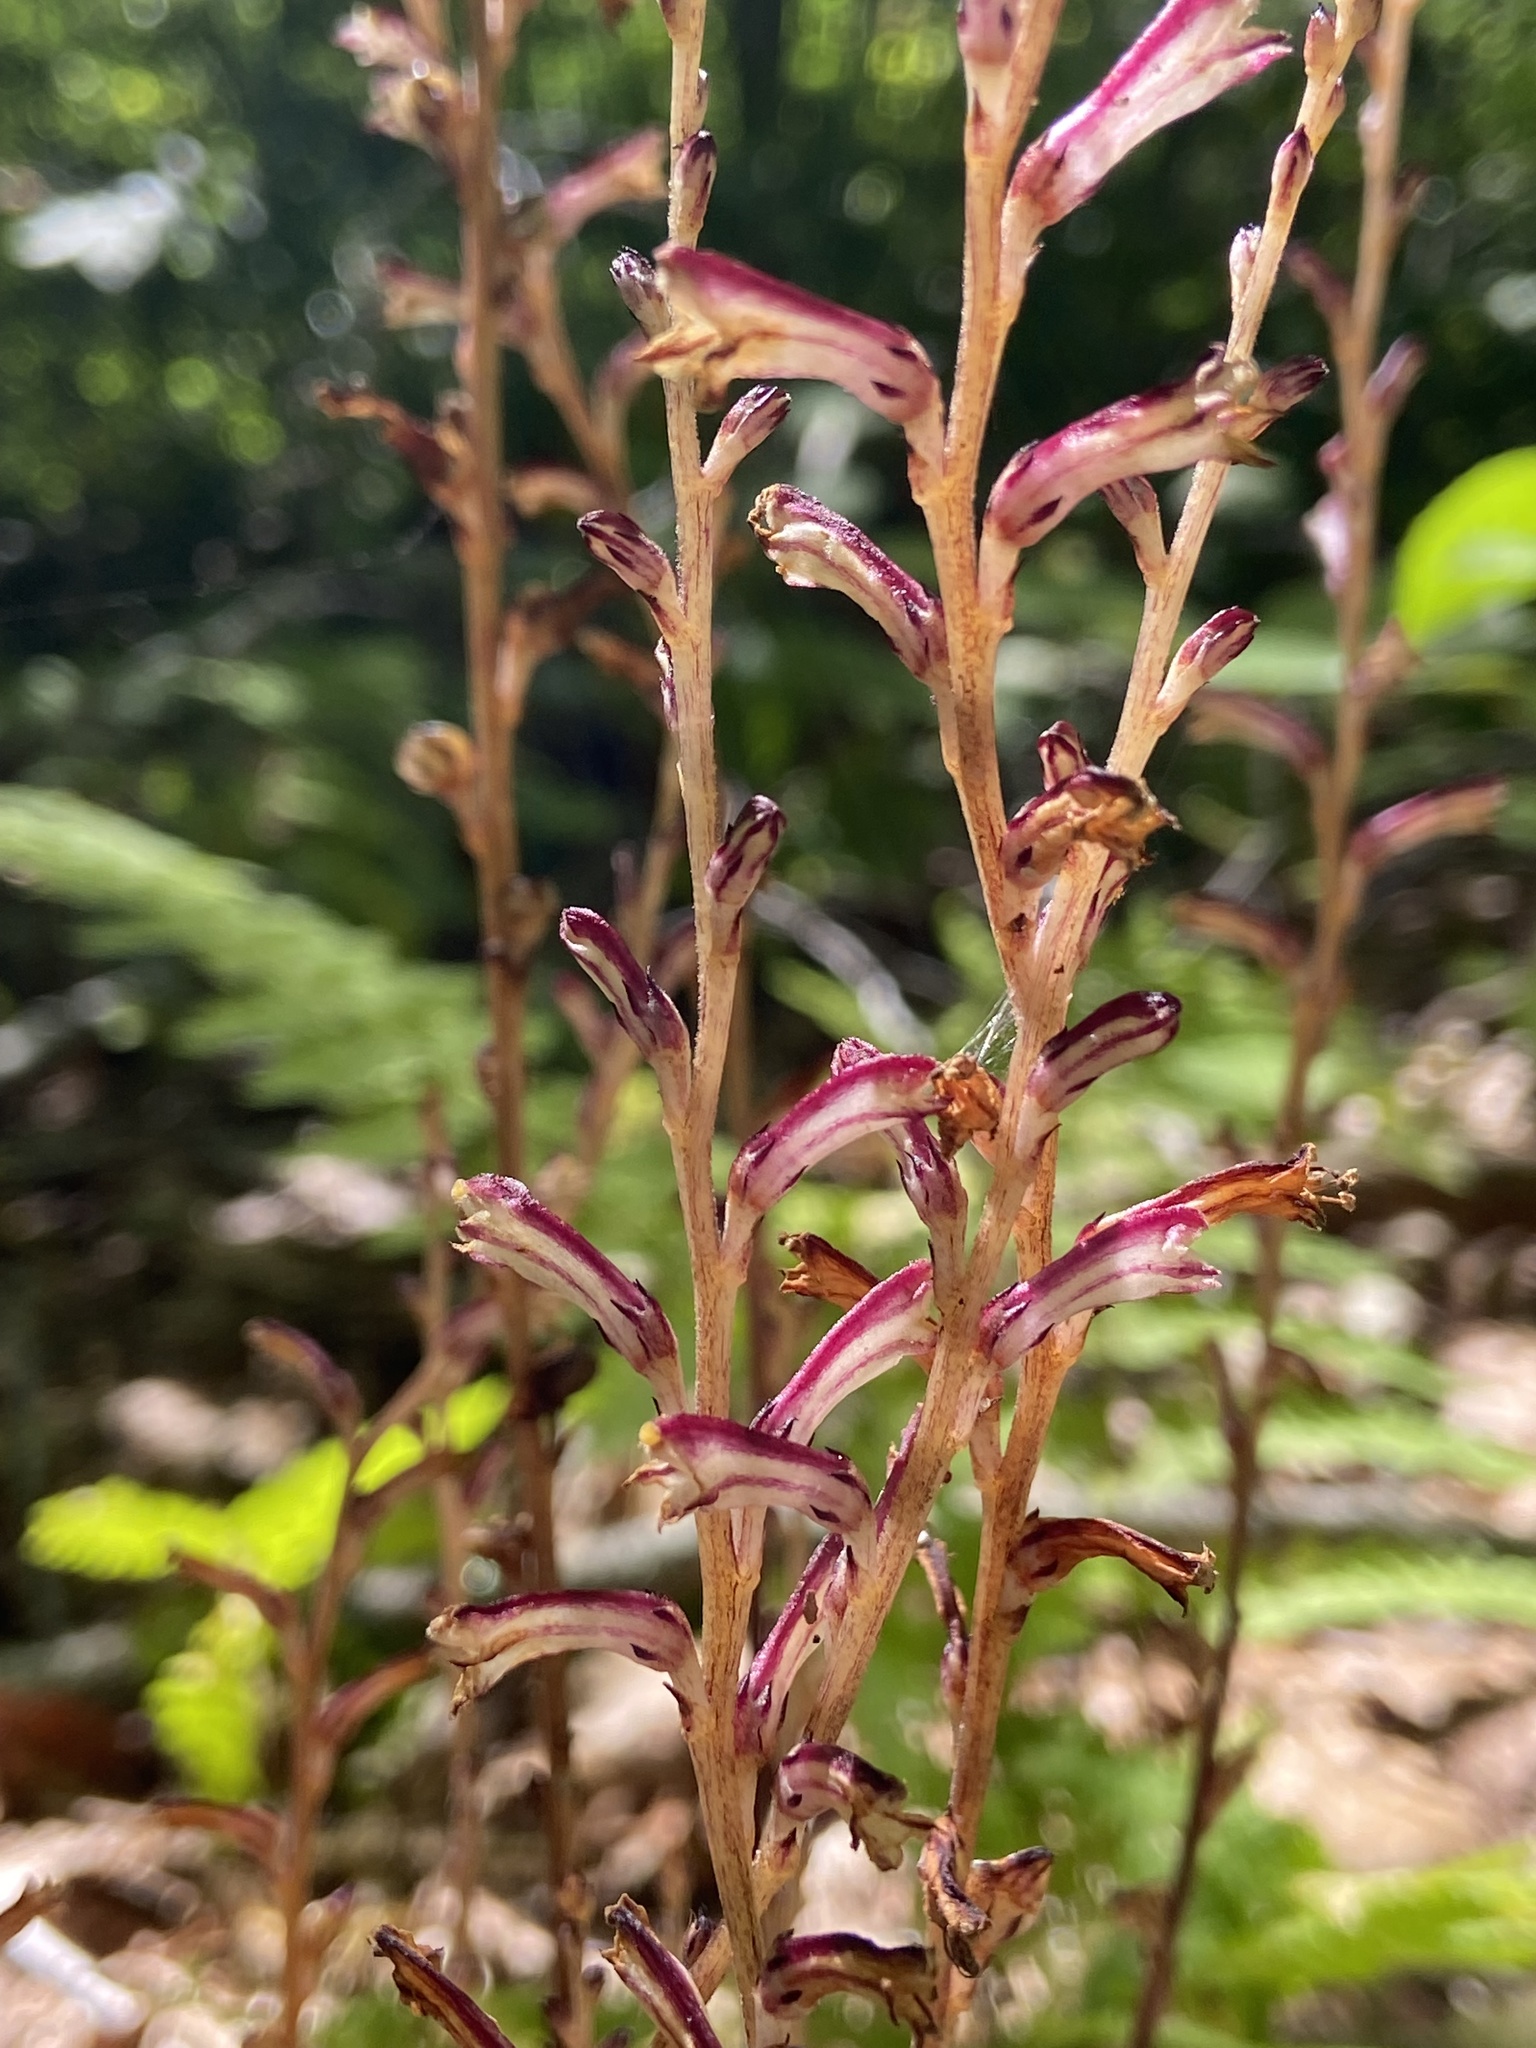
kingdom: Plantae
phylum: Tracheophyta
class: Magnoliopsida
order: Lamiales
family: Orobanchaceae
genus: Epifagus
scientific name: Epifagus virginiana
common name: Beechdrops
